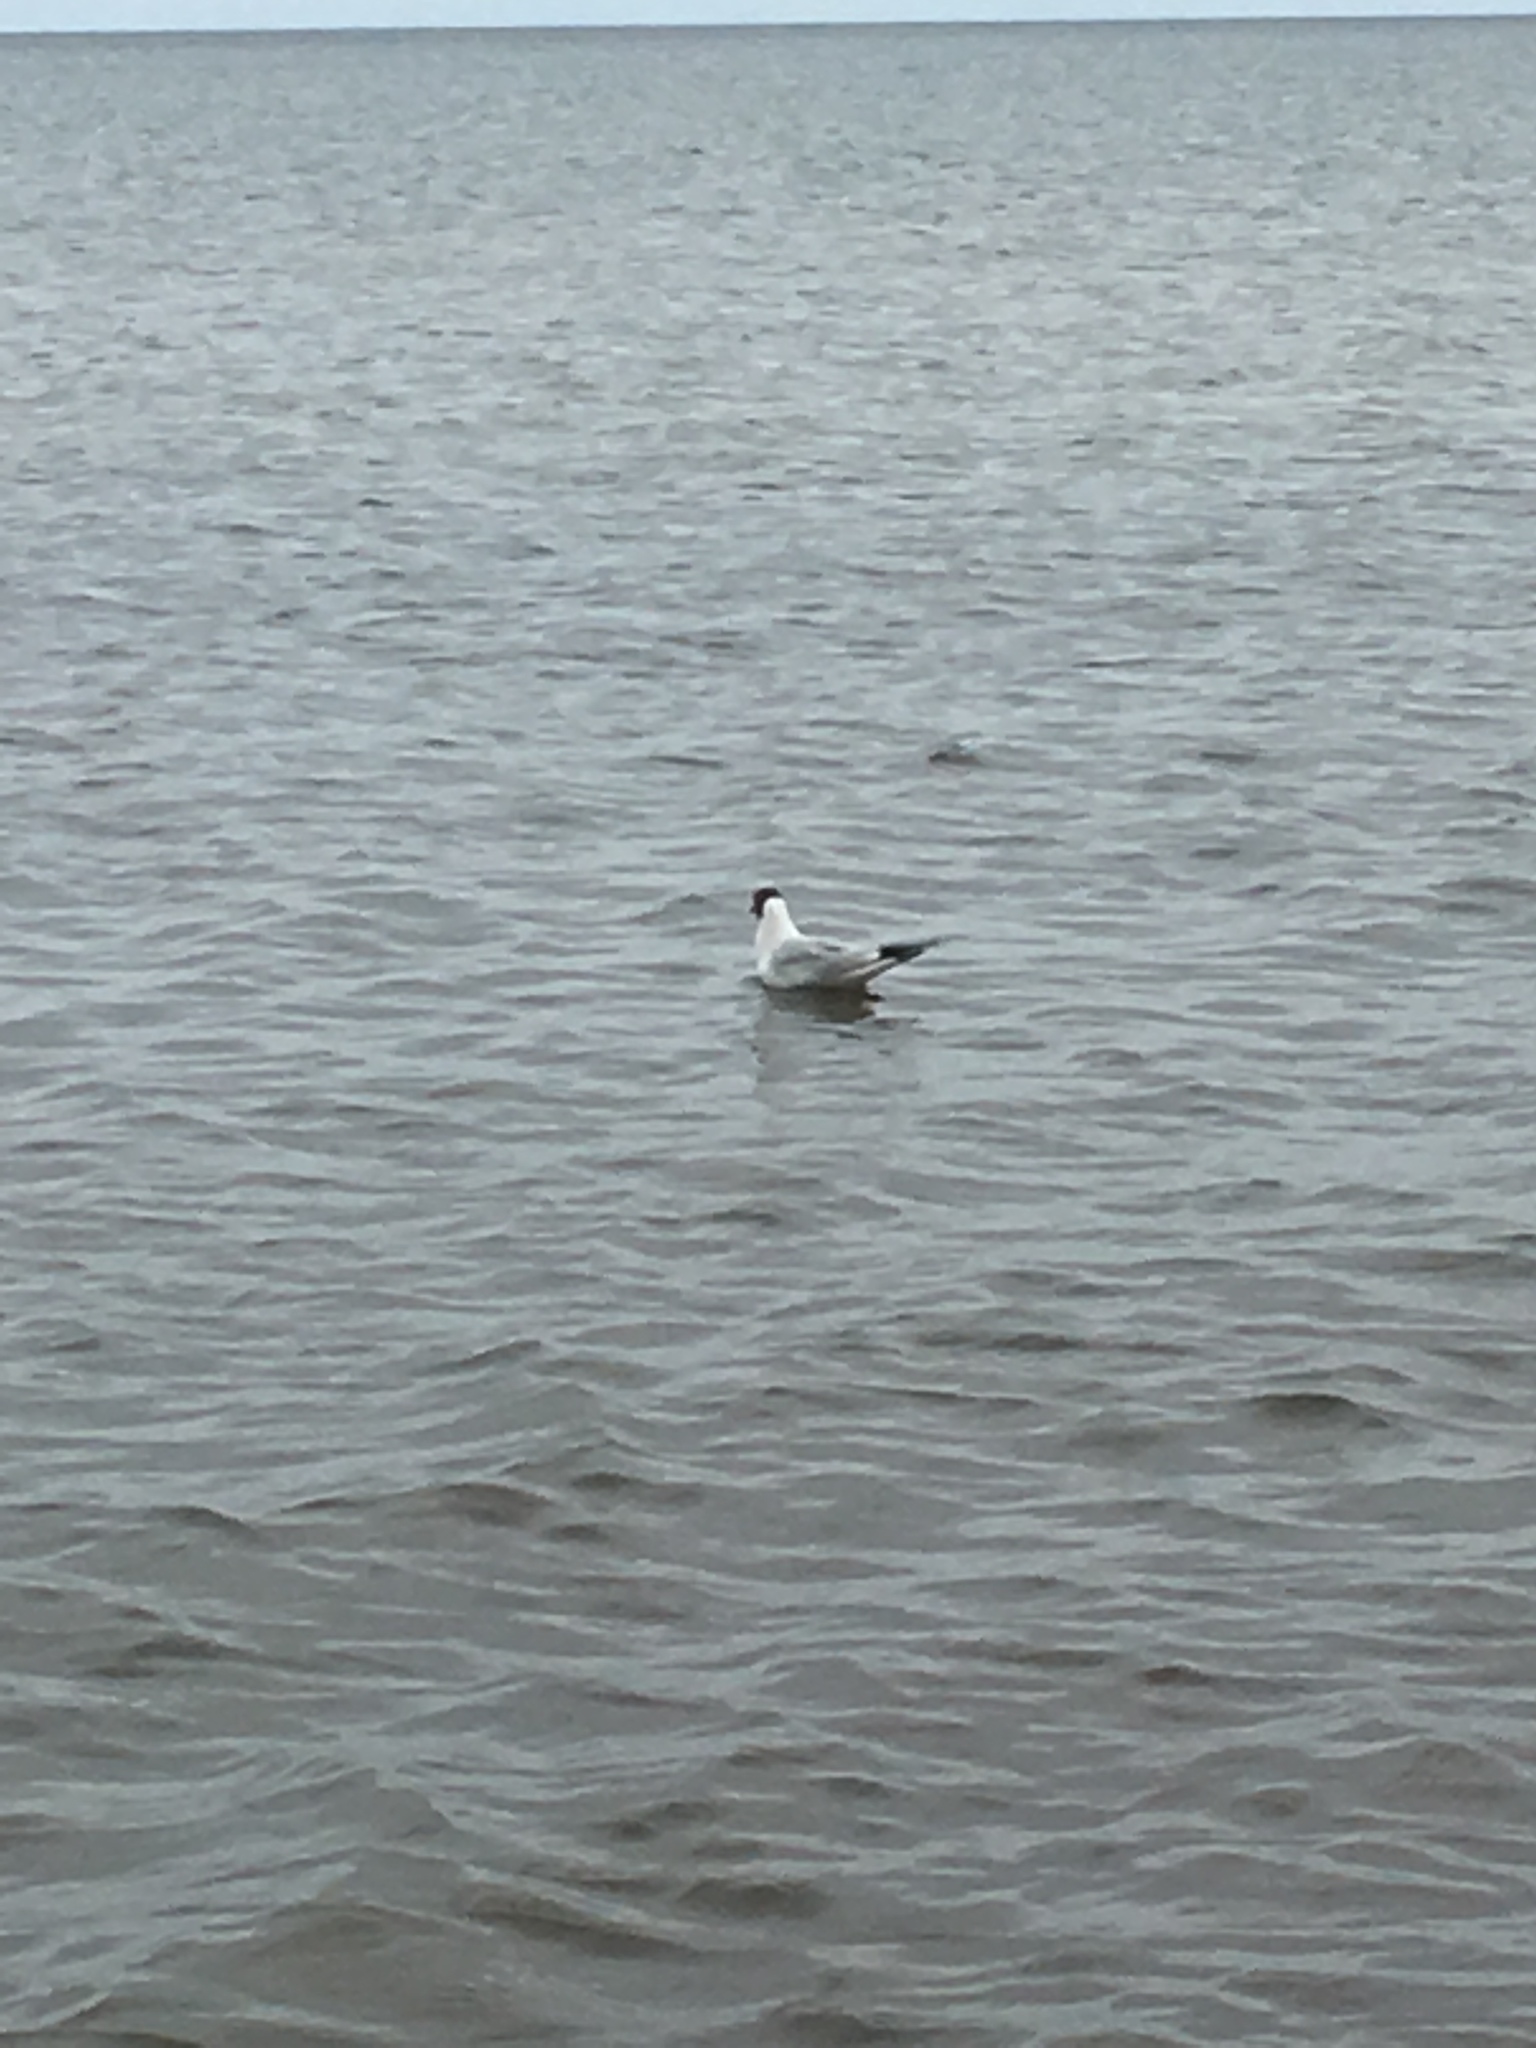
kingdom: Animalia
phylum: Chordata
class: Aves
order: Charadriiformes
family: Laridae
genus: Chroicocephalus
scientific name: Chroicocephalus ridibundus
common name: Black-headed gull
